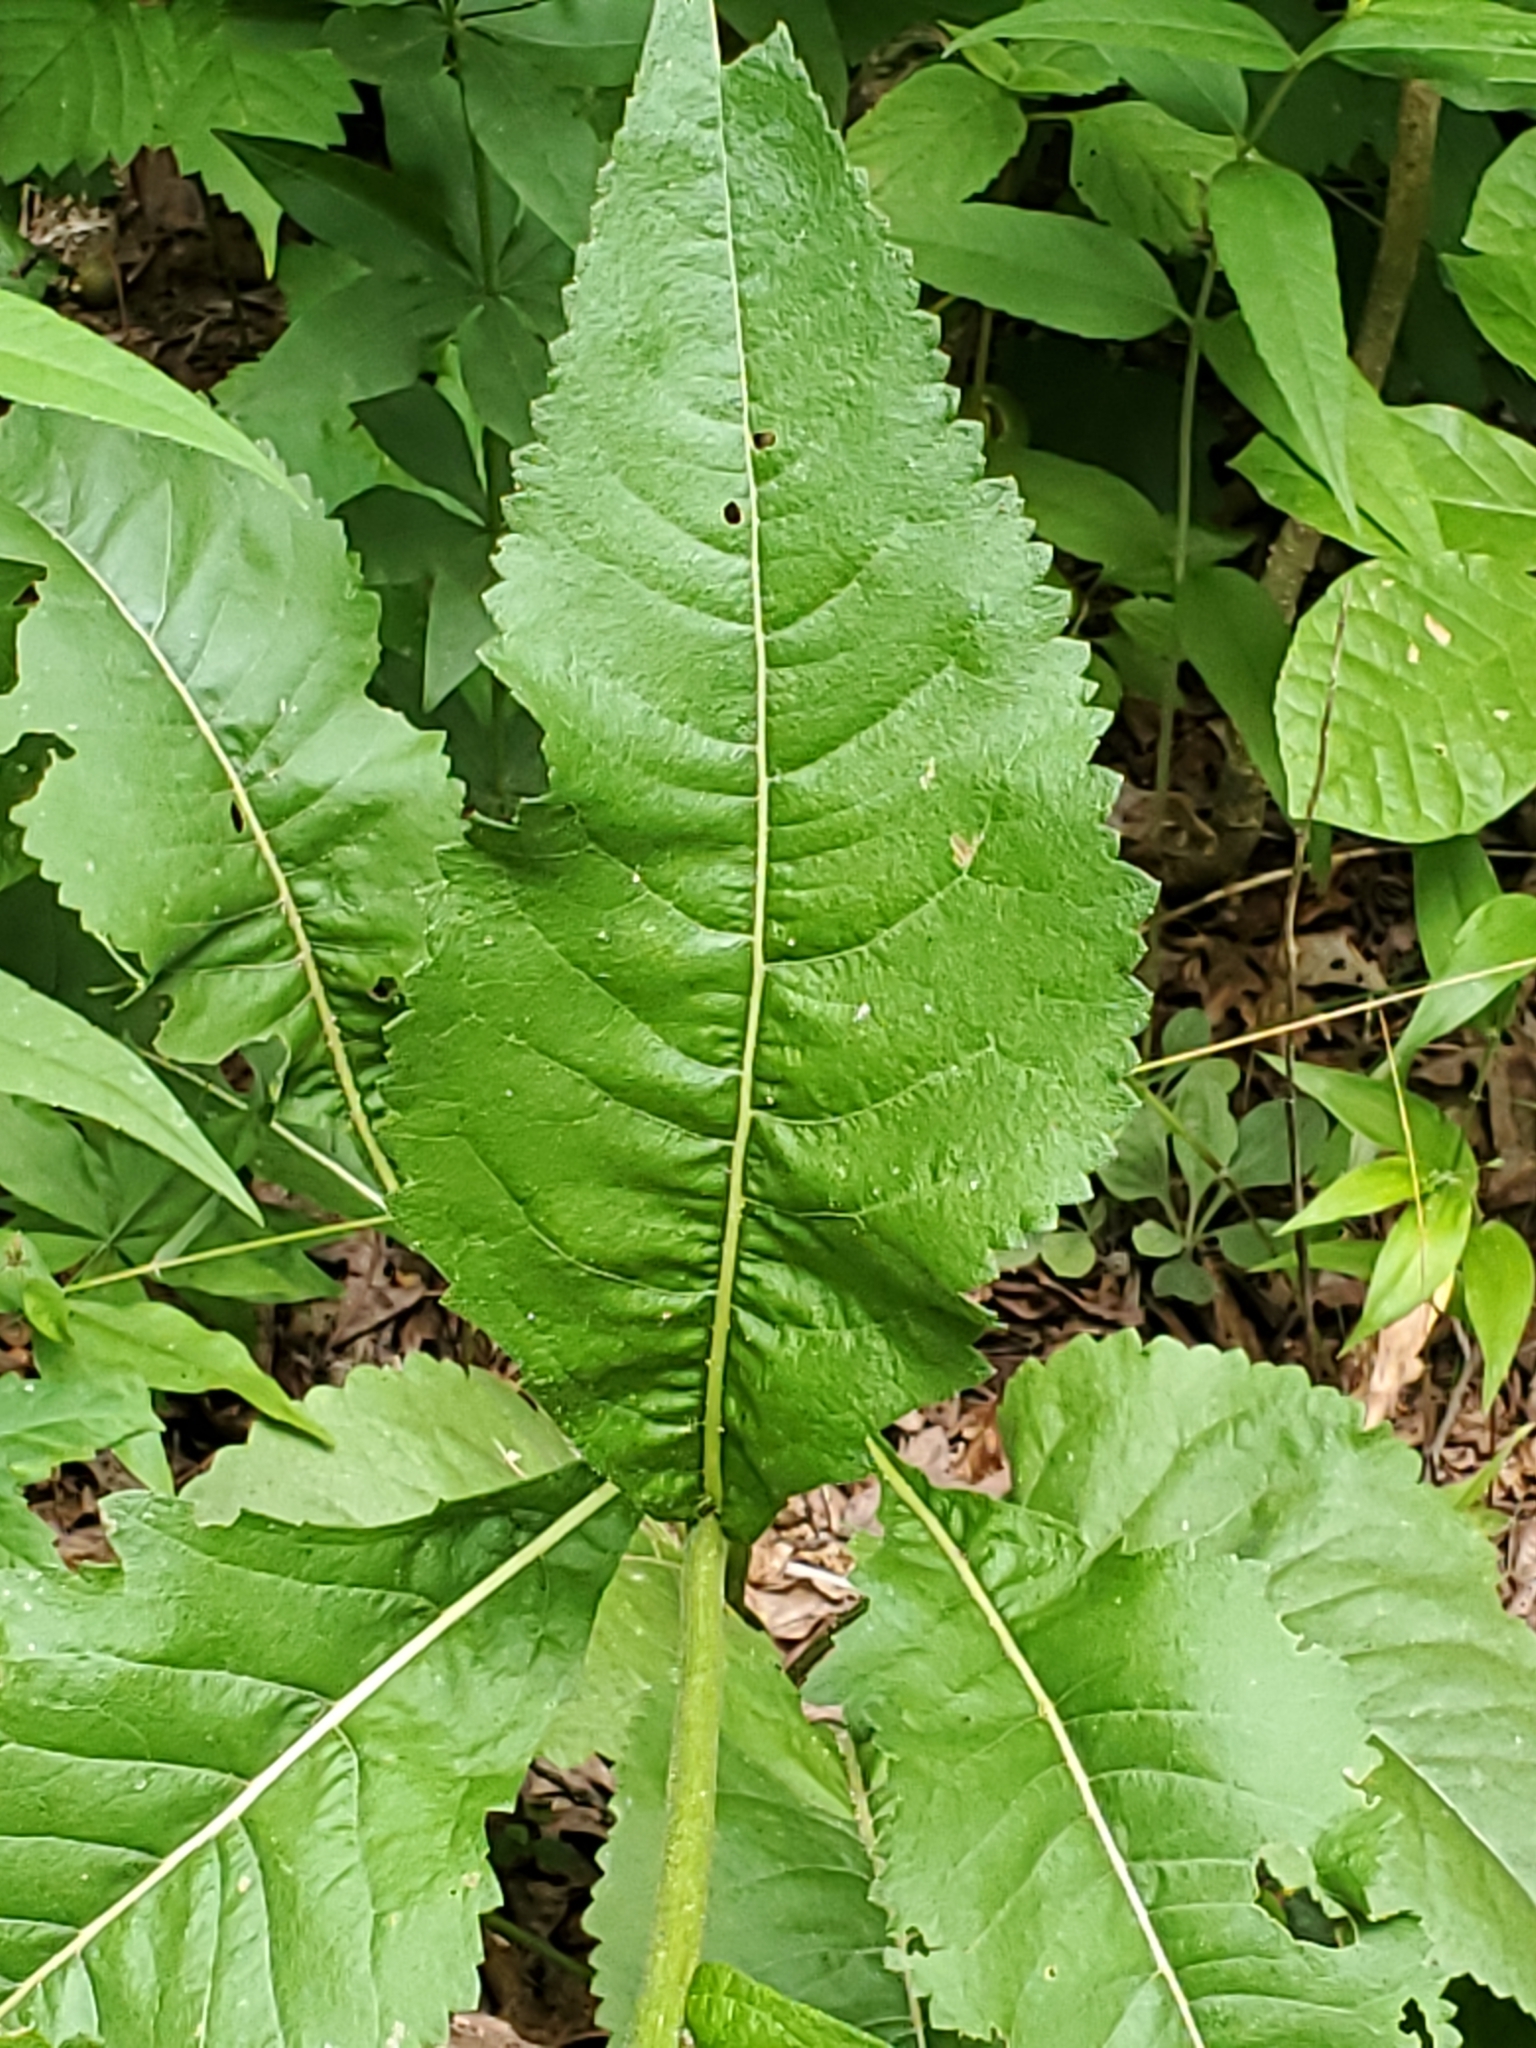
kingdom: Plantae
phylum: Tracheophyta
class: Magnoliopsida
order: Asterales
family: Asteraceae
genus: Parthenium
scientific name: Parthenium integrifolium
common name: American feverfew
